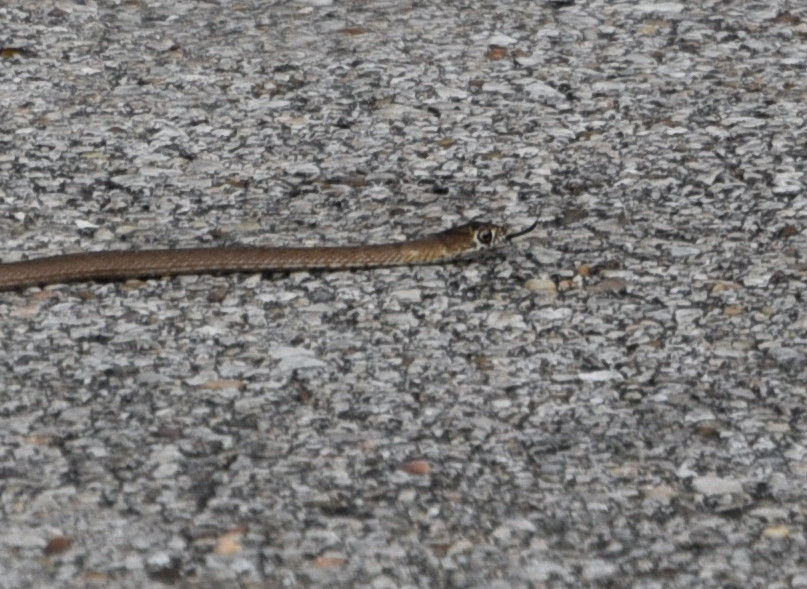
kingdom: Animalia
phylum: Chordata
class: Squamata
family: Colubridae
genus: Masticophis
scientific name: Masticophis flagellum
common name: Coachwhip
